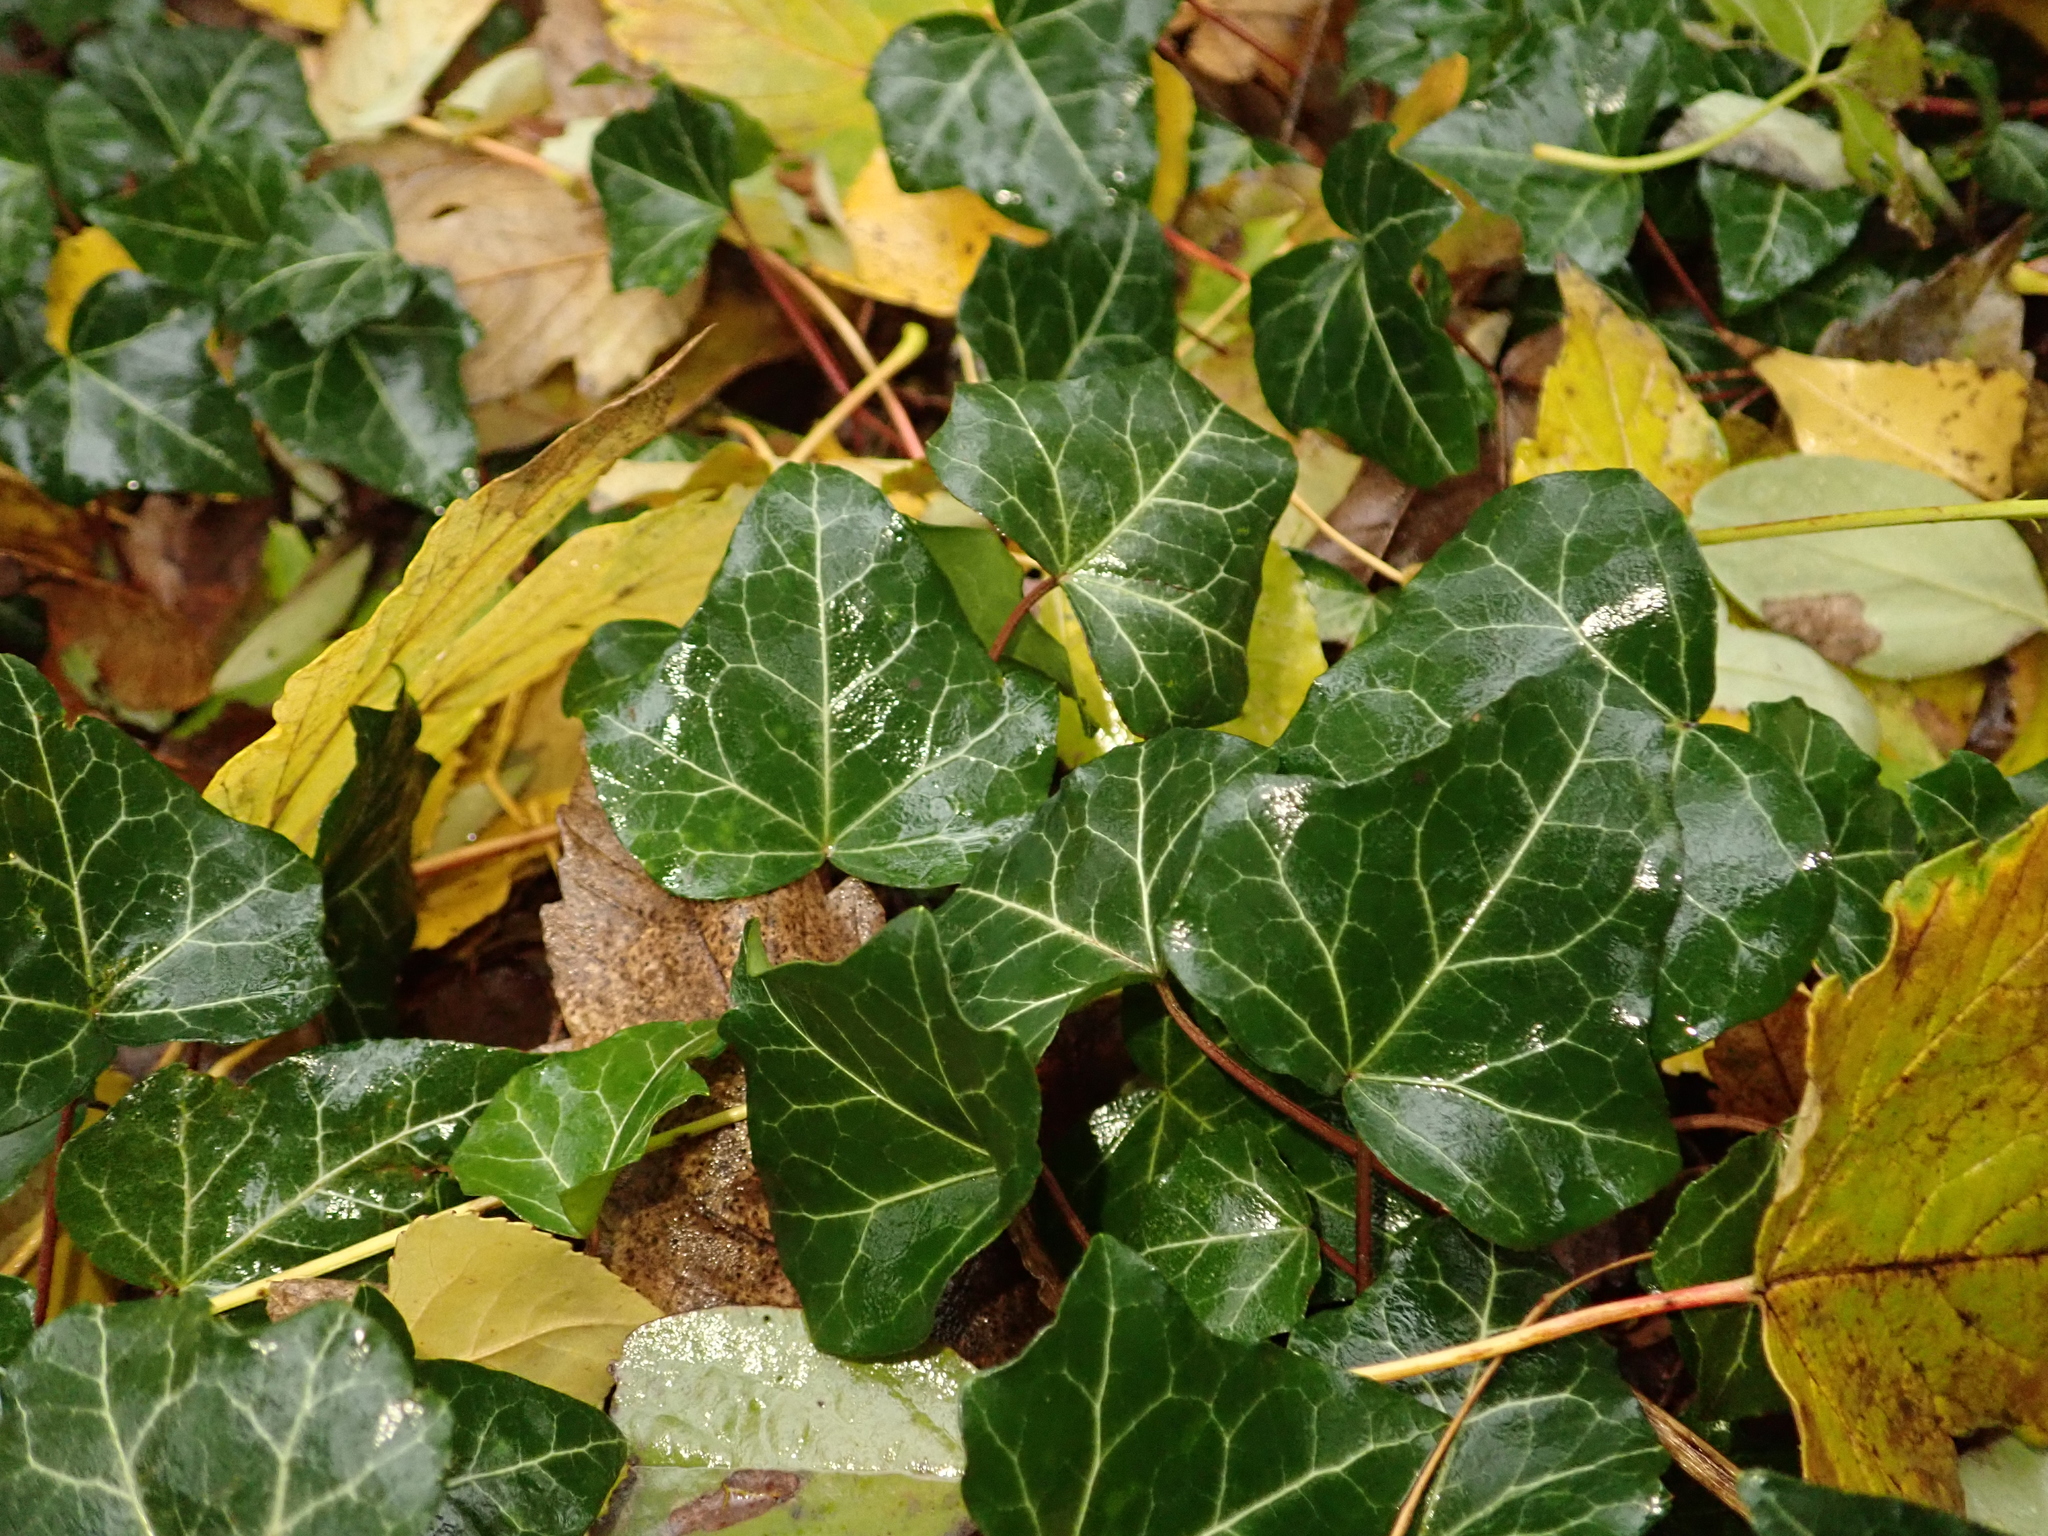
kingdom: Plantae
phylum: Tracheophyta
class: Magnoliopsida
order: Apiales
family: Araliaceae
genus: Hedera
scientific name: Hedera helix
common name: Ivy
